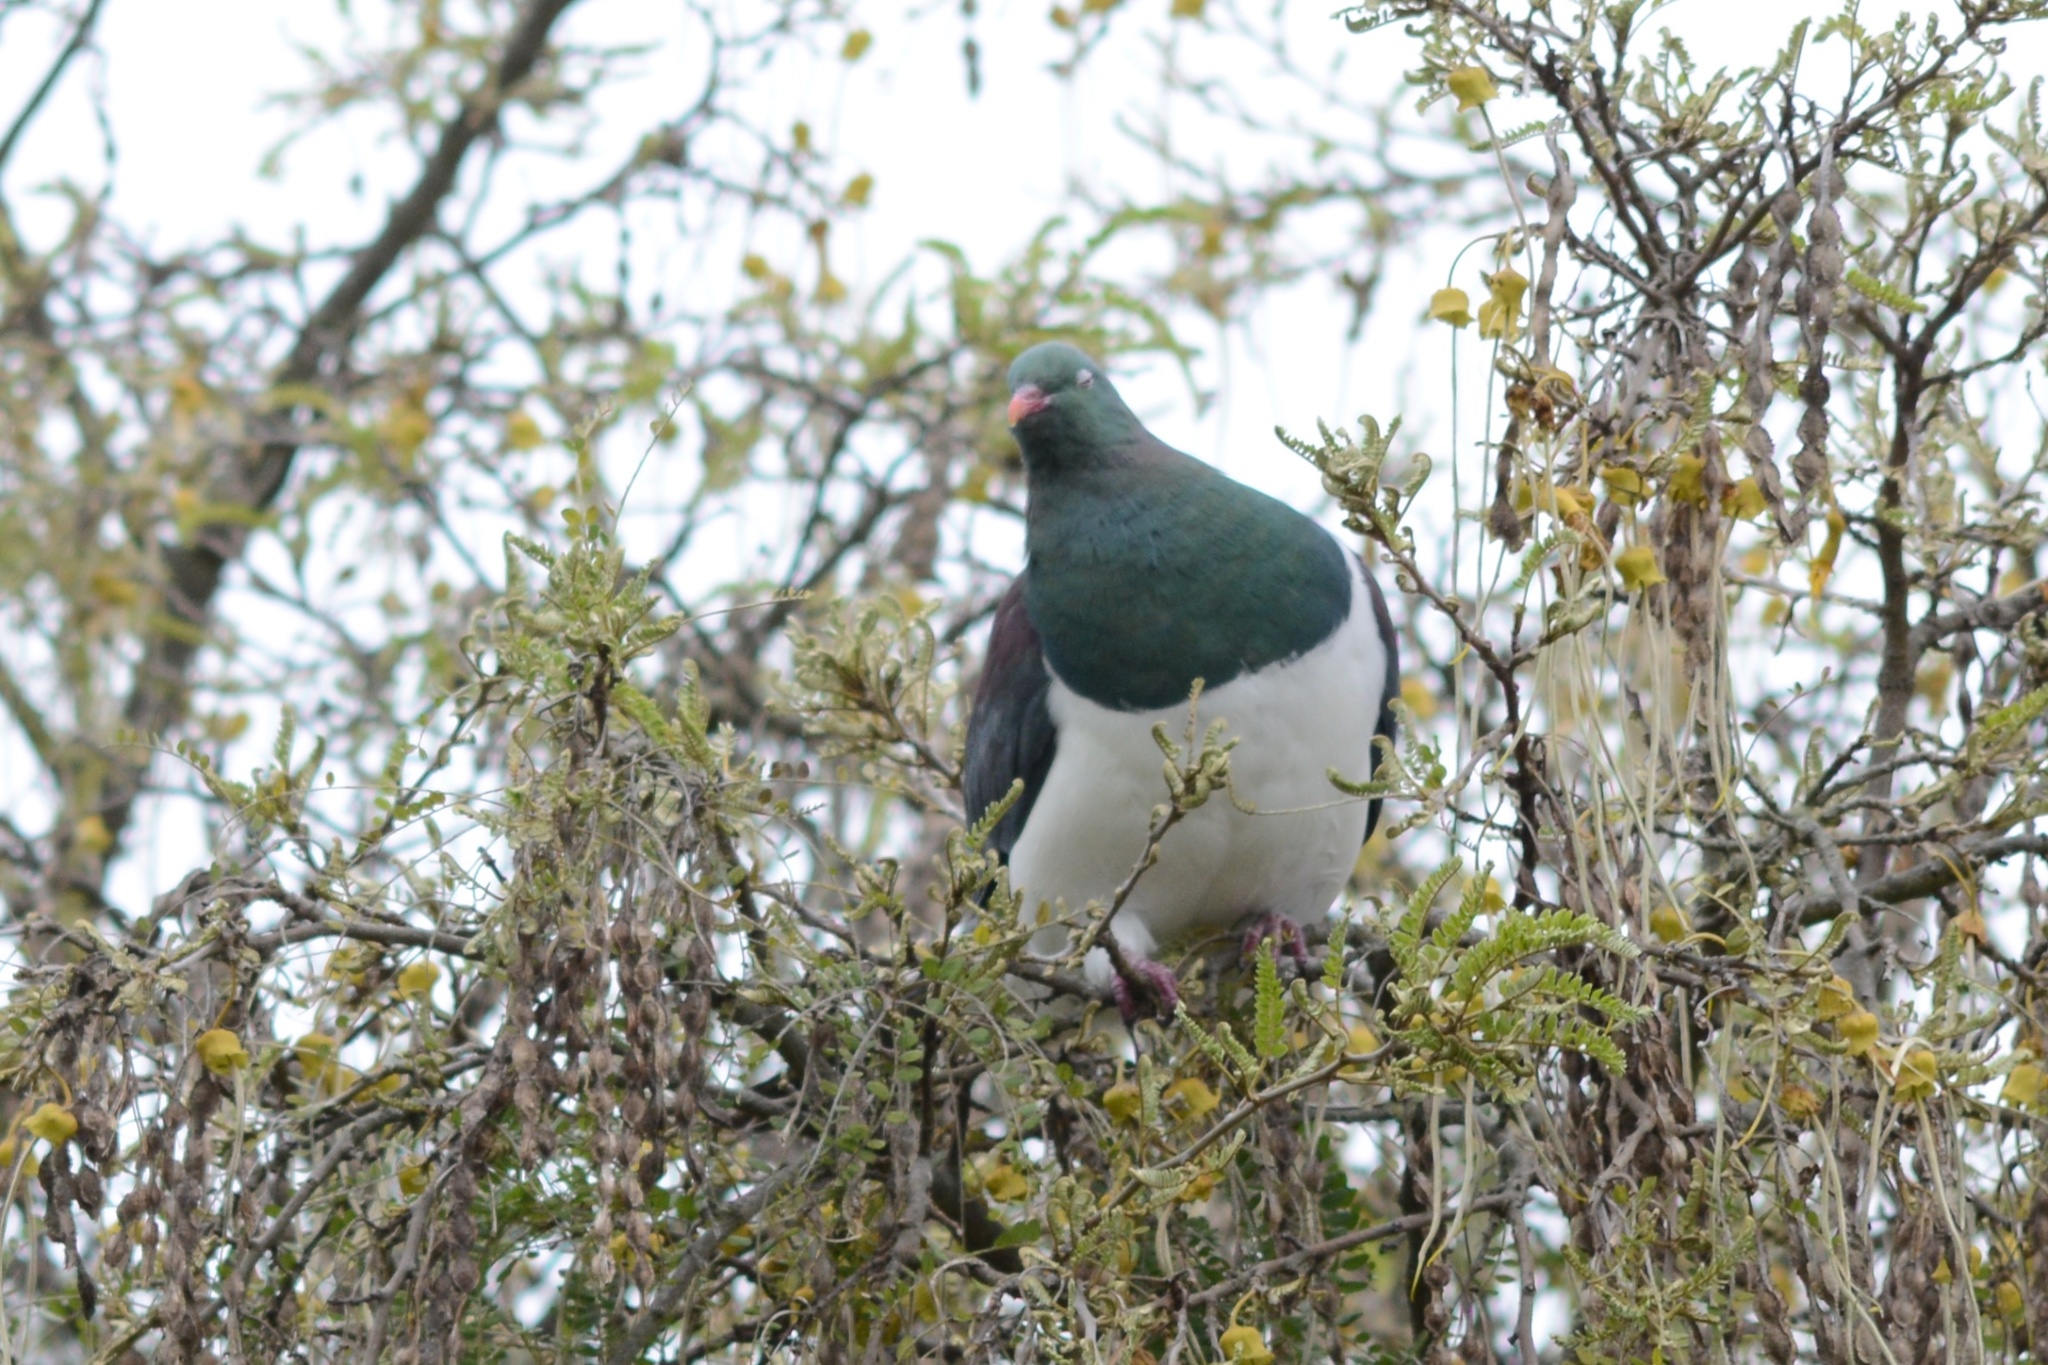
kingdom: Animalia
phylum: Chordata
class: Aves
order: Columbiformes
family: Columbidae
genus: Hemiphaga
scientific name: Hemiphaga novaeseelandiae
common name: New zealand pigeon
